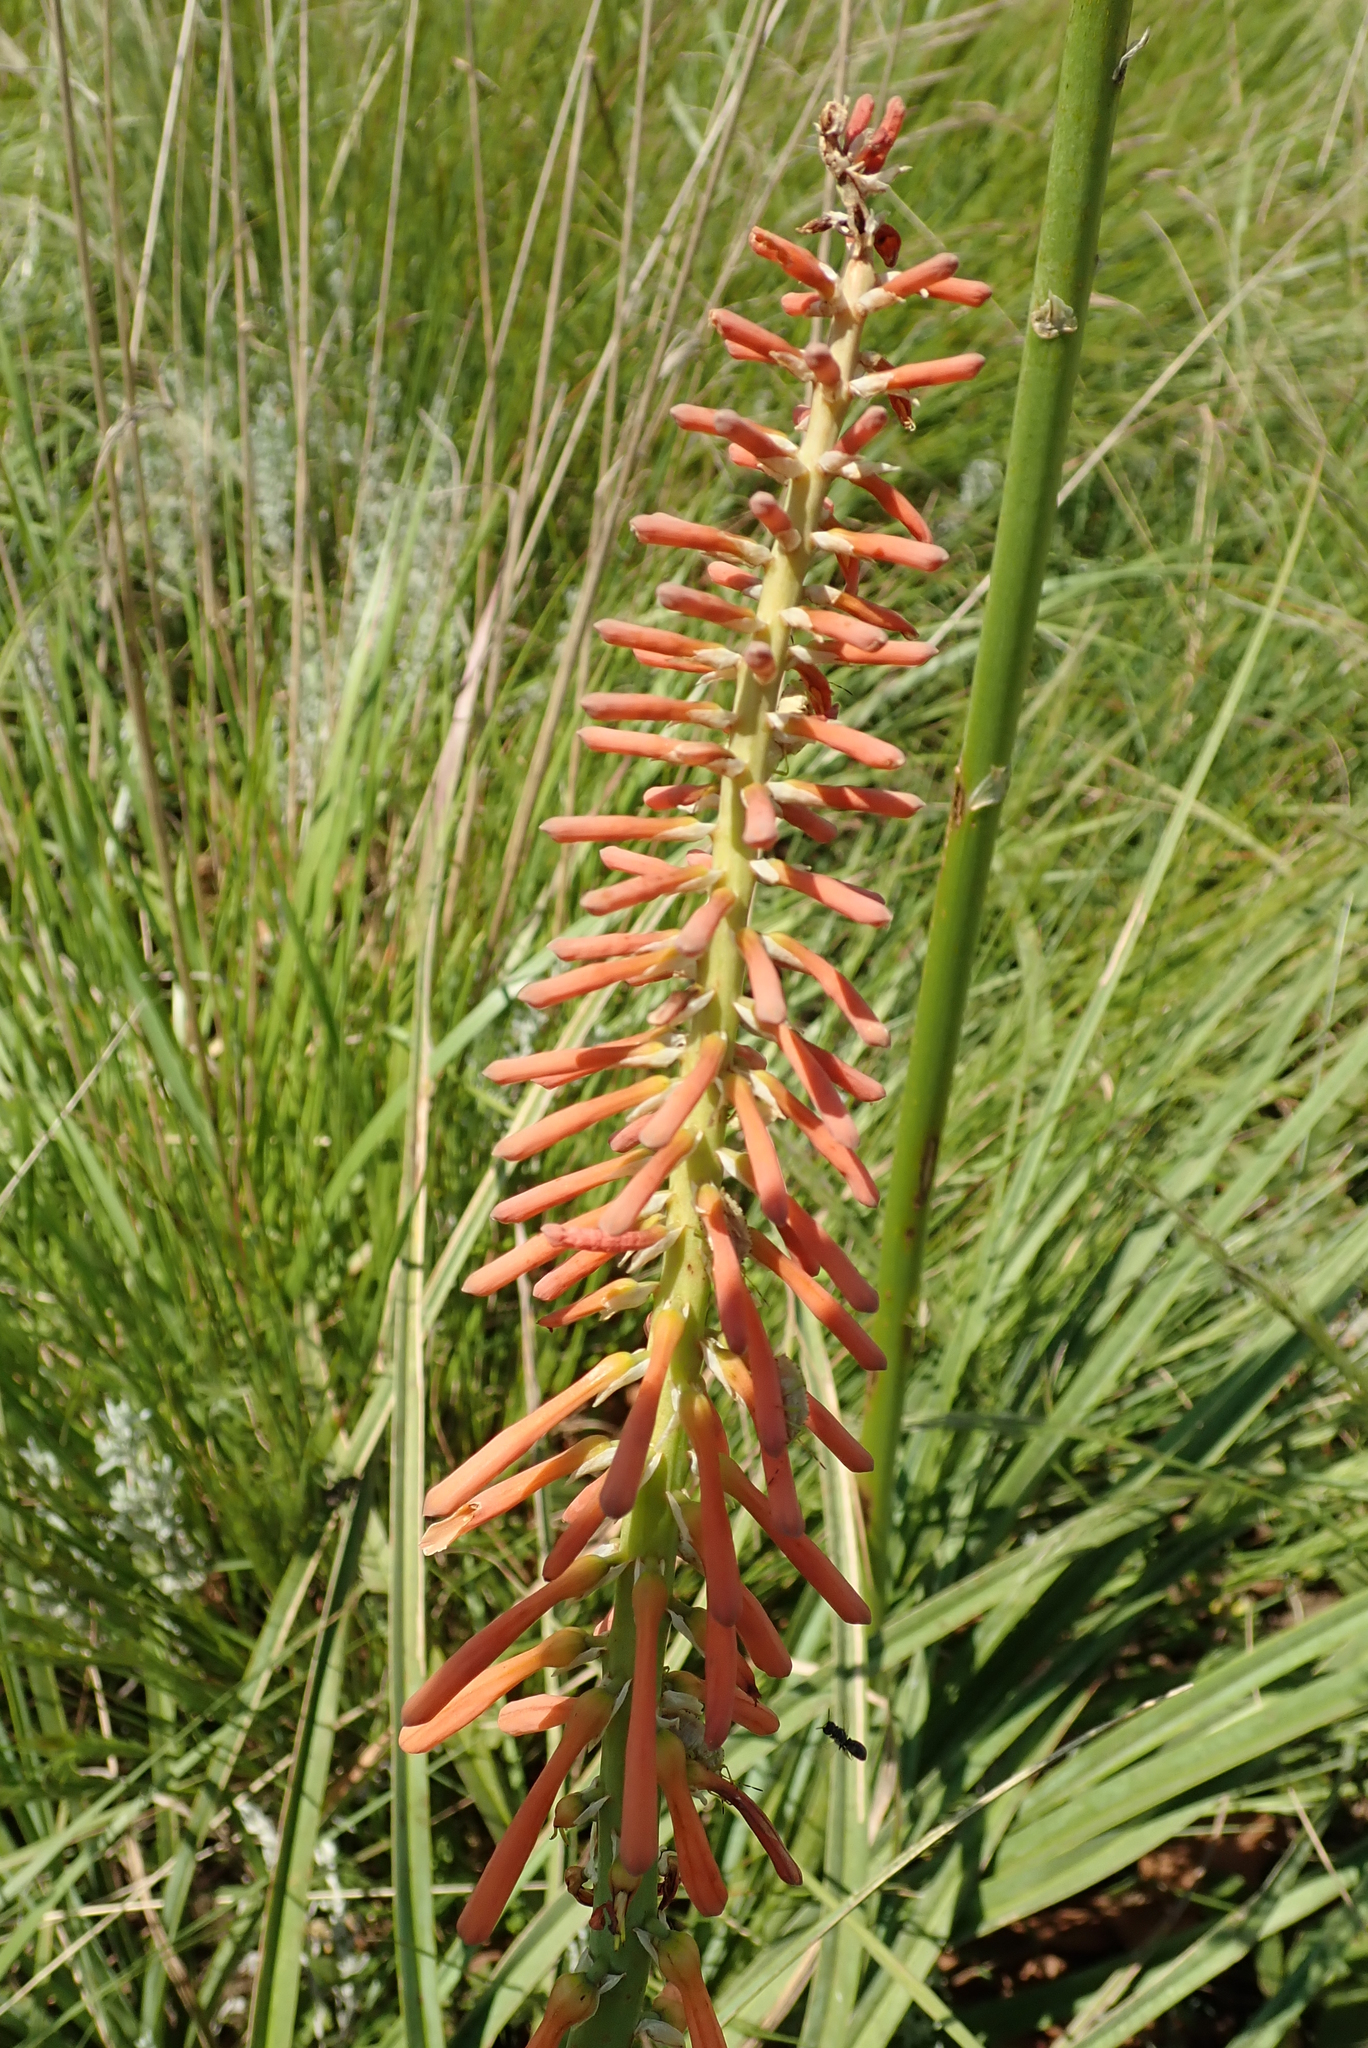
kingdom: Plantae
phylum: Tracheophyta
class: Liliopsida
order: Asparagales
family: Asphodelaceae
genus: Kniphofia
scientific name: Kniphofia laxiflora
